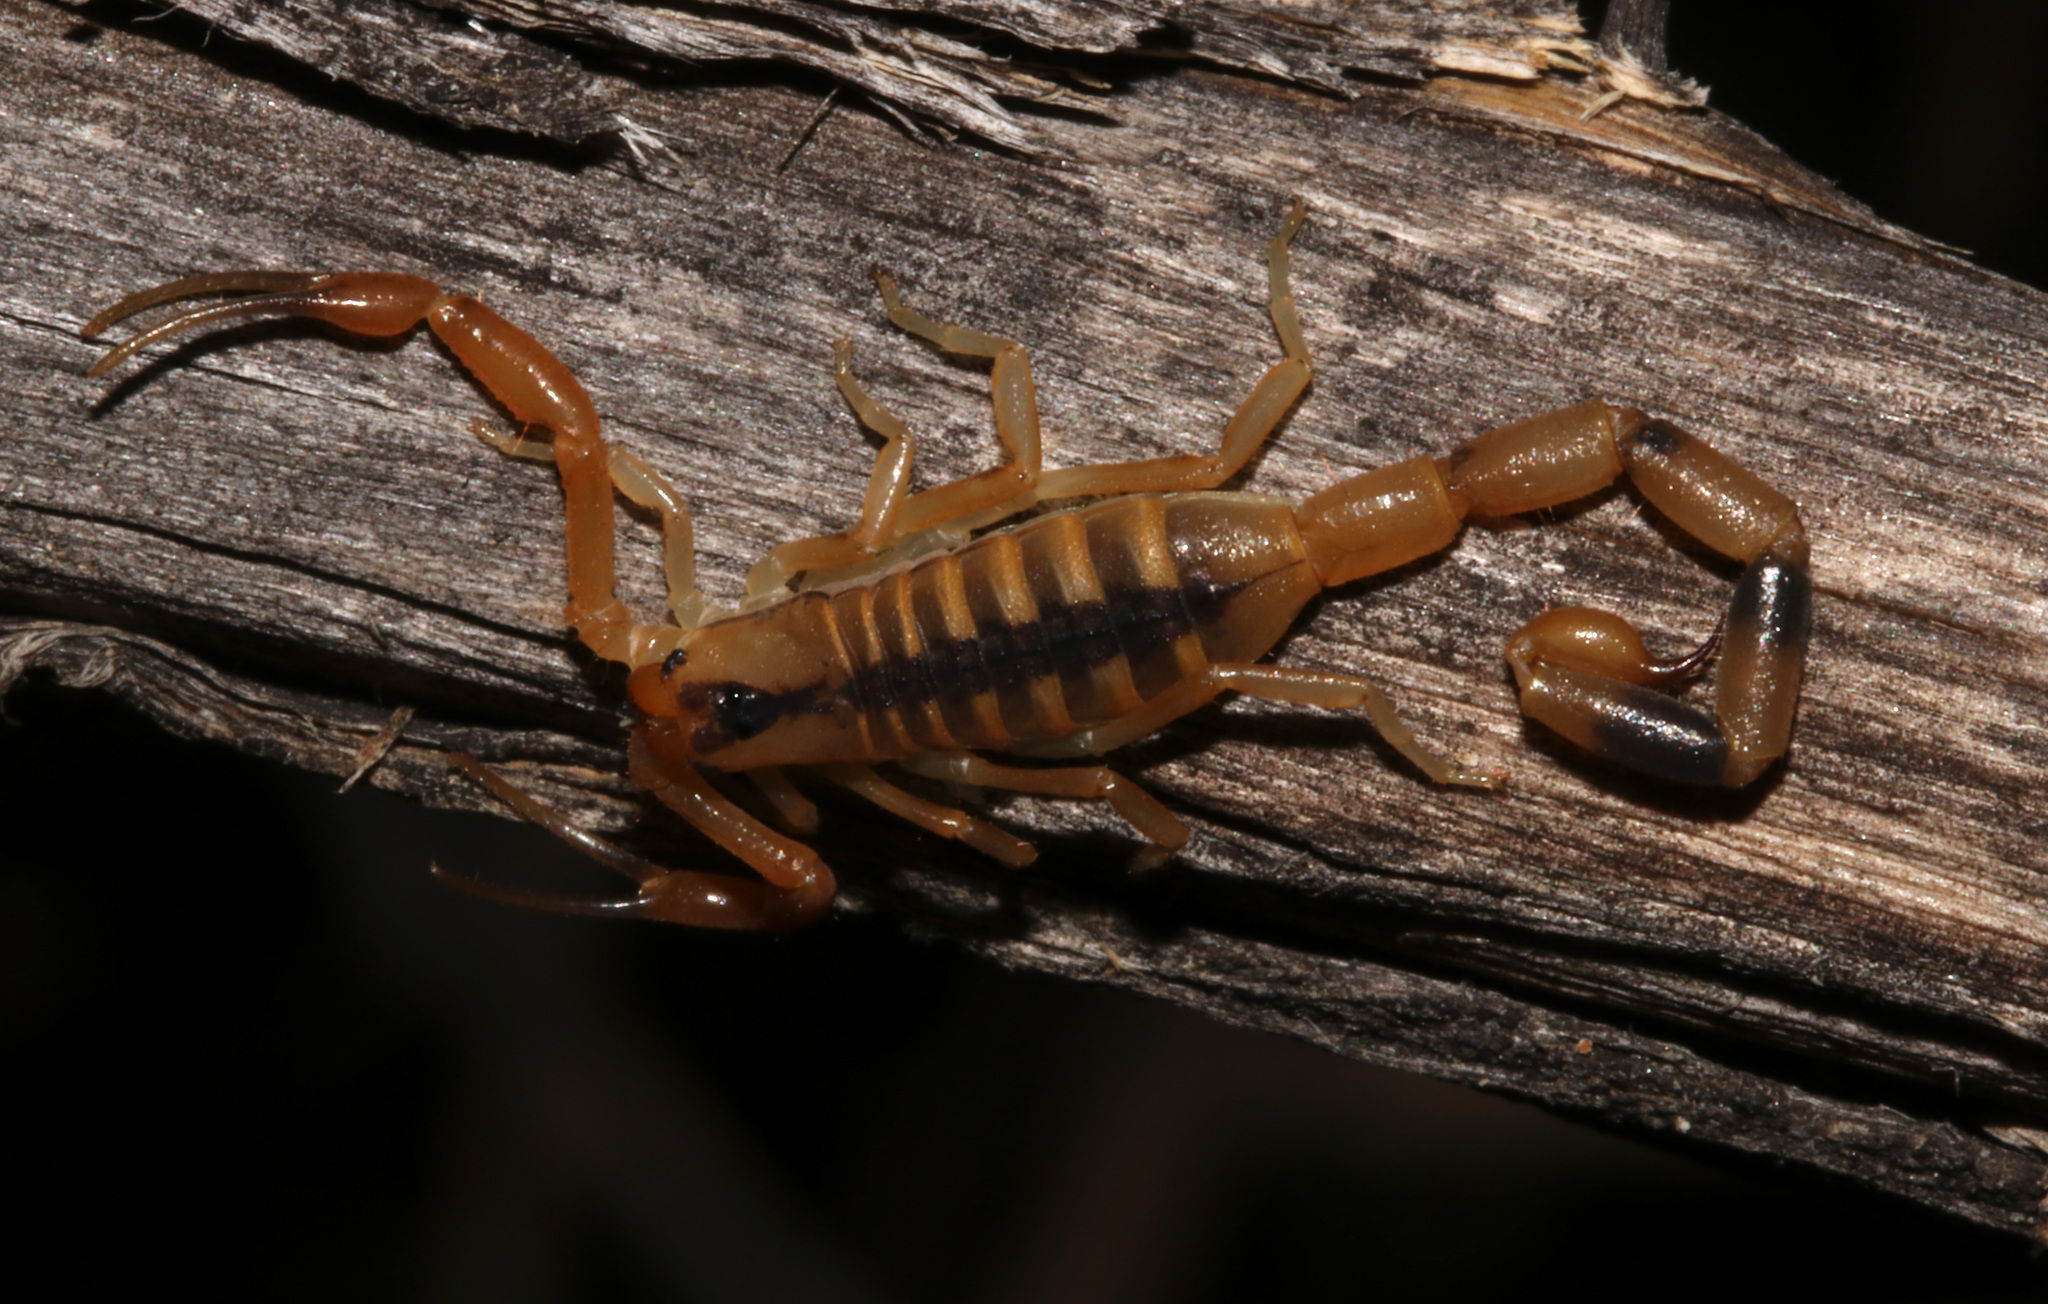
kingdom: Animalia
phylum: Arthropoda
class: Arachnida
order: Scorpiones
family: Buthidae
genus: Uroplectes
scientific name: Uroplectes otjimbinguensis
